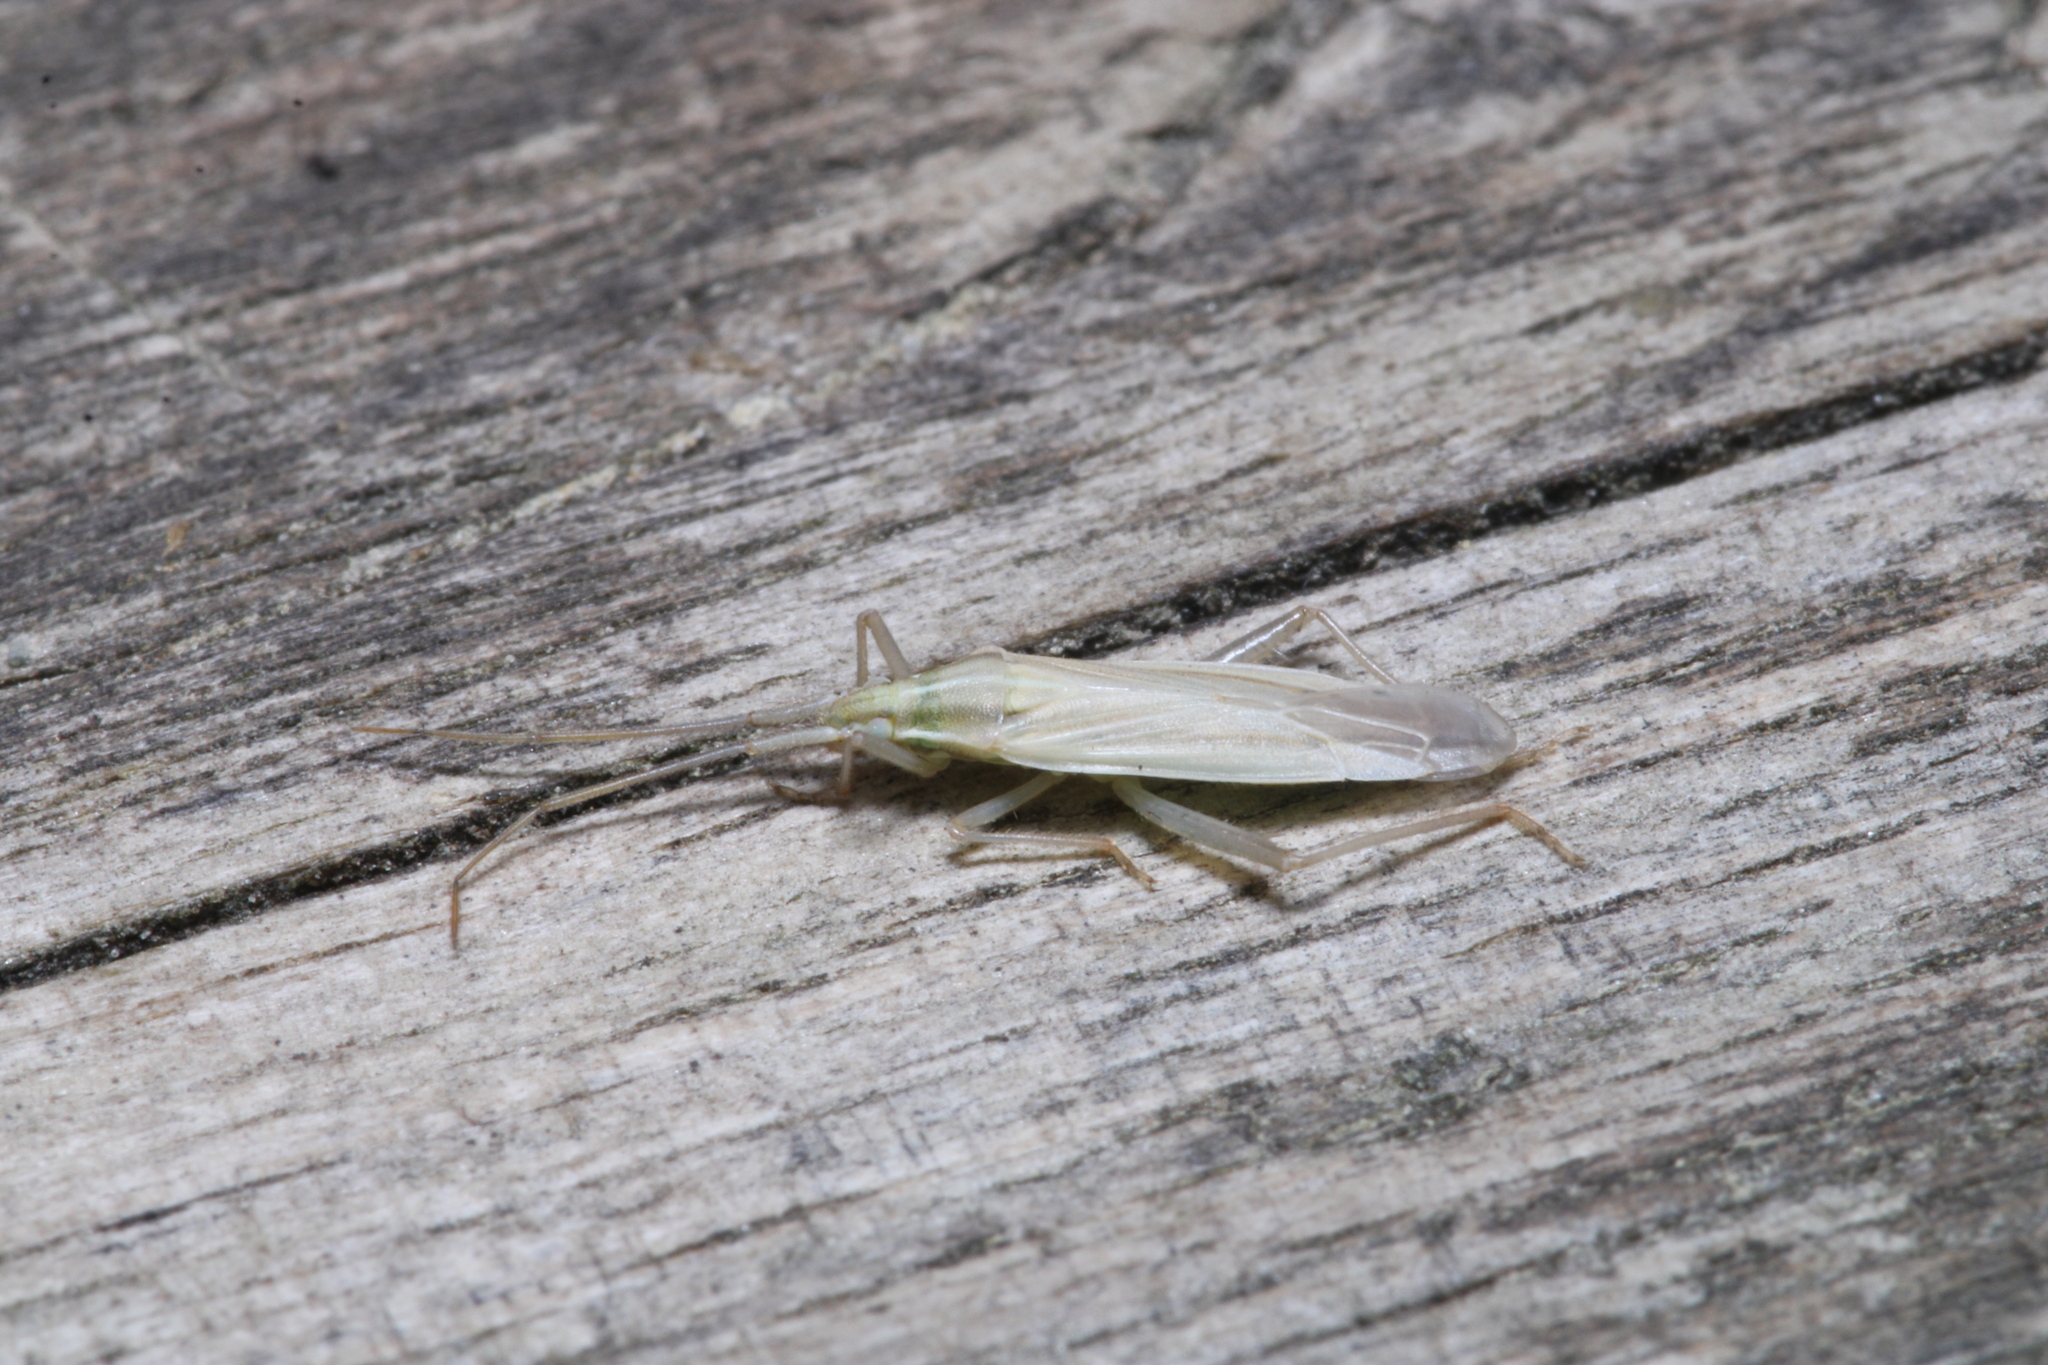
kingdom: Animalia
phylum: Arthropoda
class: Insecta
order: Hemiptera
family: Miridae
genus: Stenodema
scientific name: Stenodema calcarata
